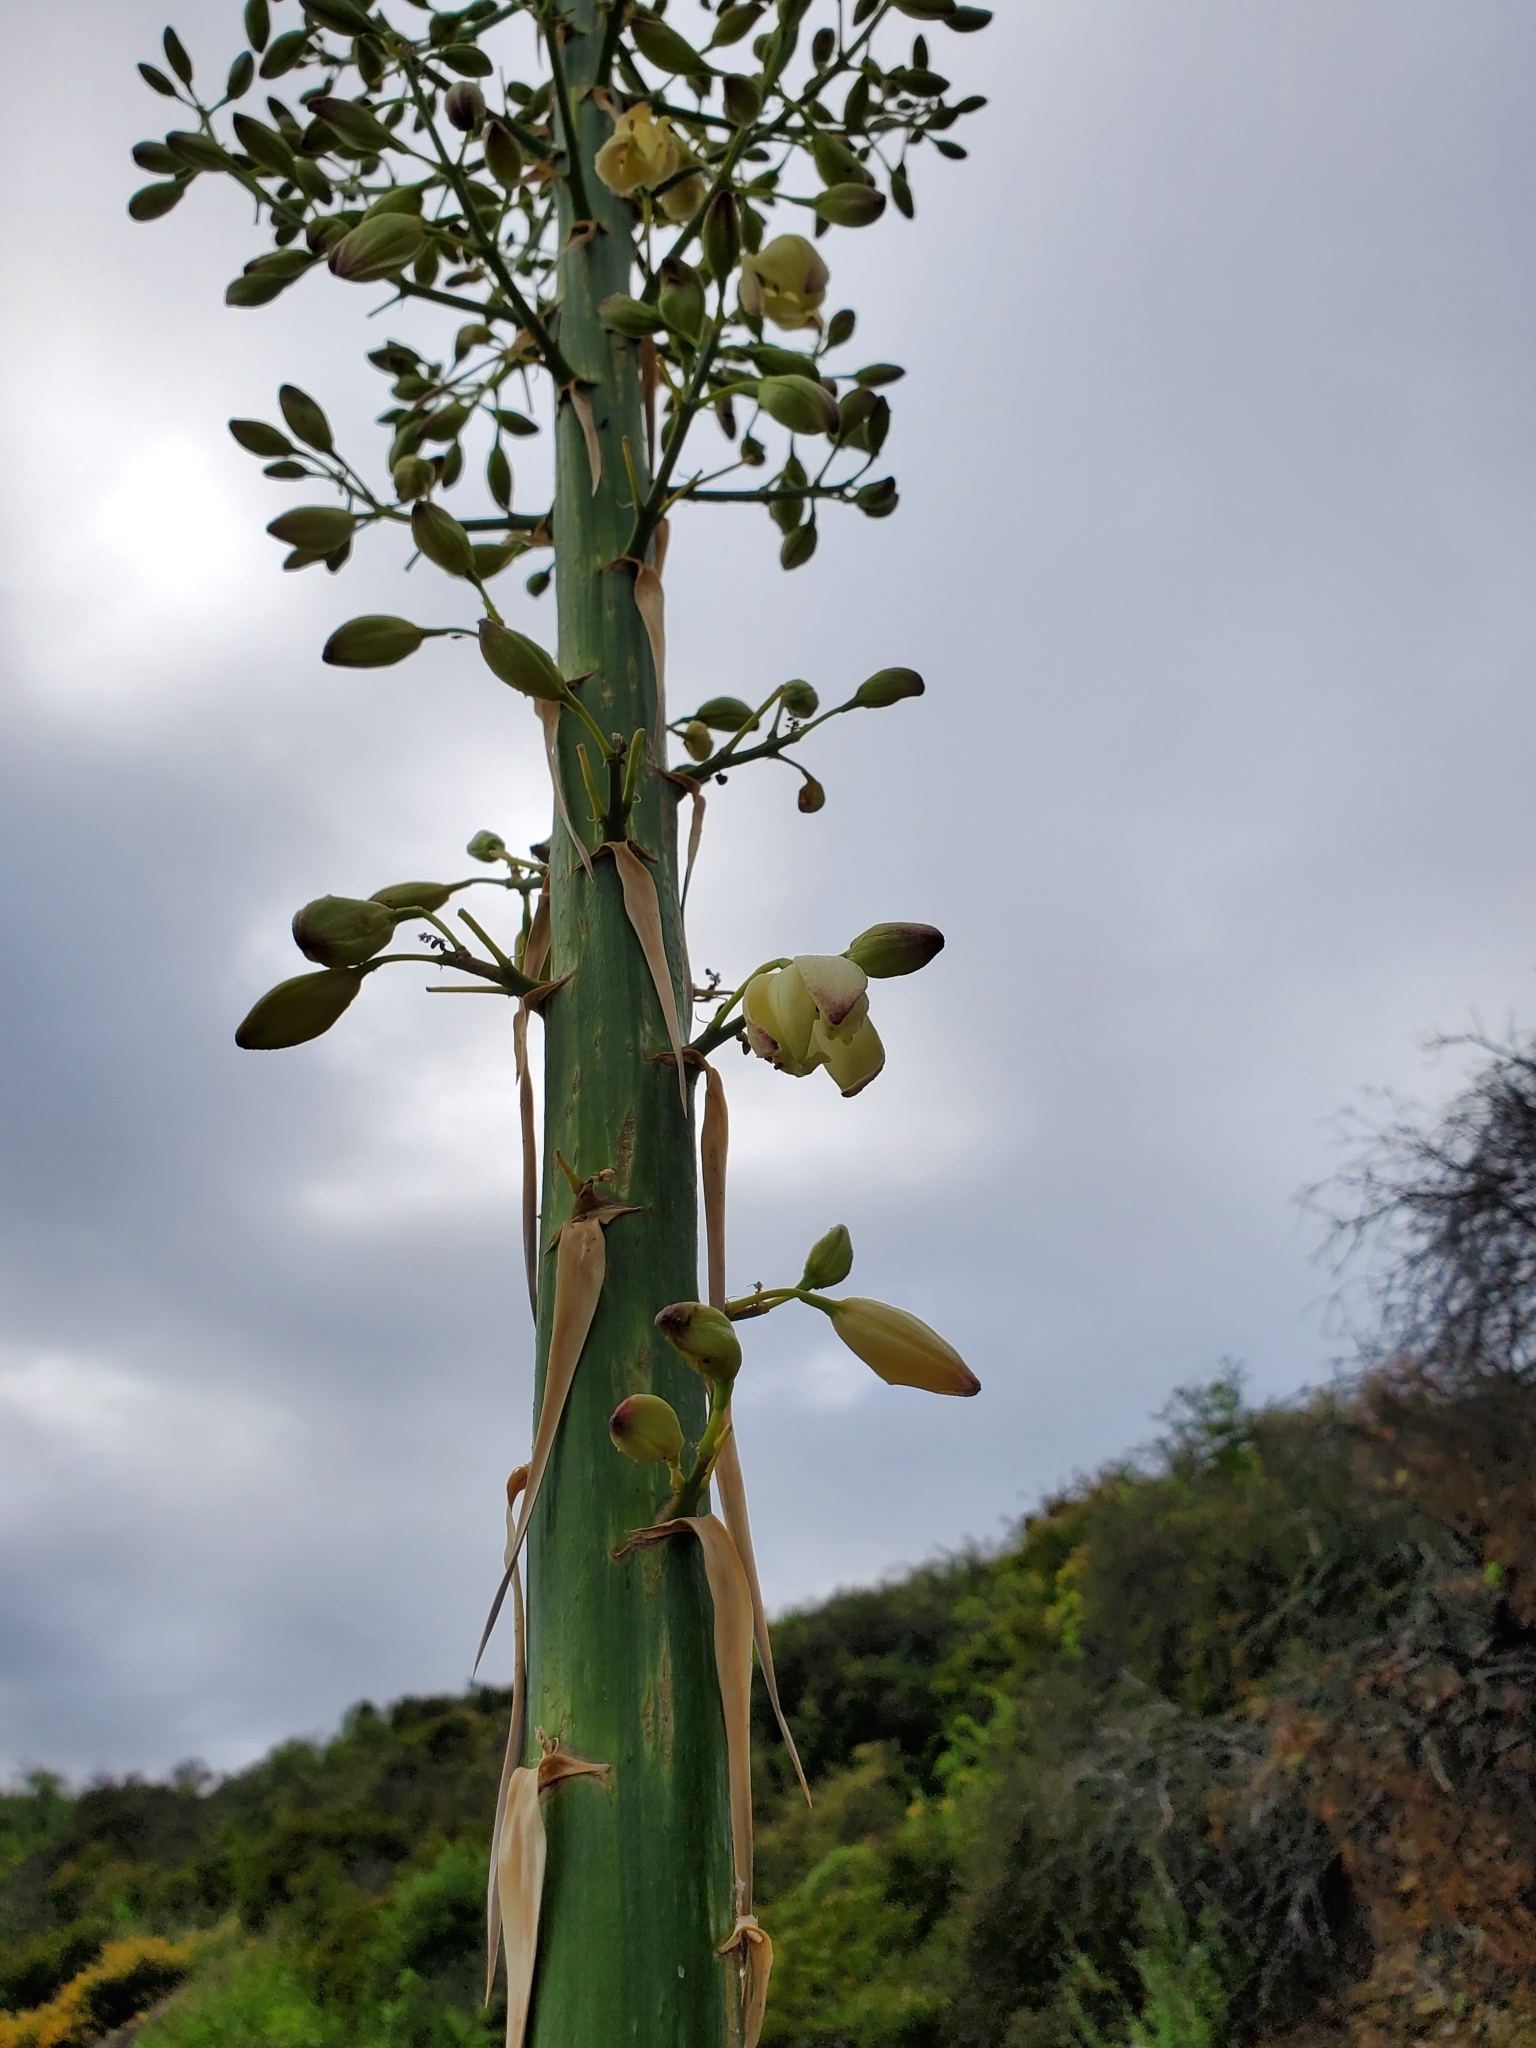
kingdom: Plantae
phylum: Tracheophyta
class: Liliopsida
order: Asparagales
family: Asparagaceae
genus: Hesperoyucca
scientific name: Hesperoyucca whipplei
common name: Our lord's-candle
